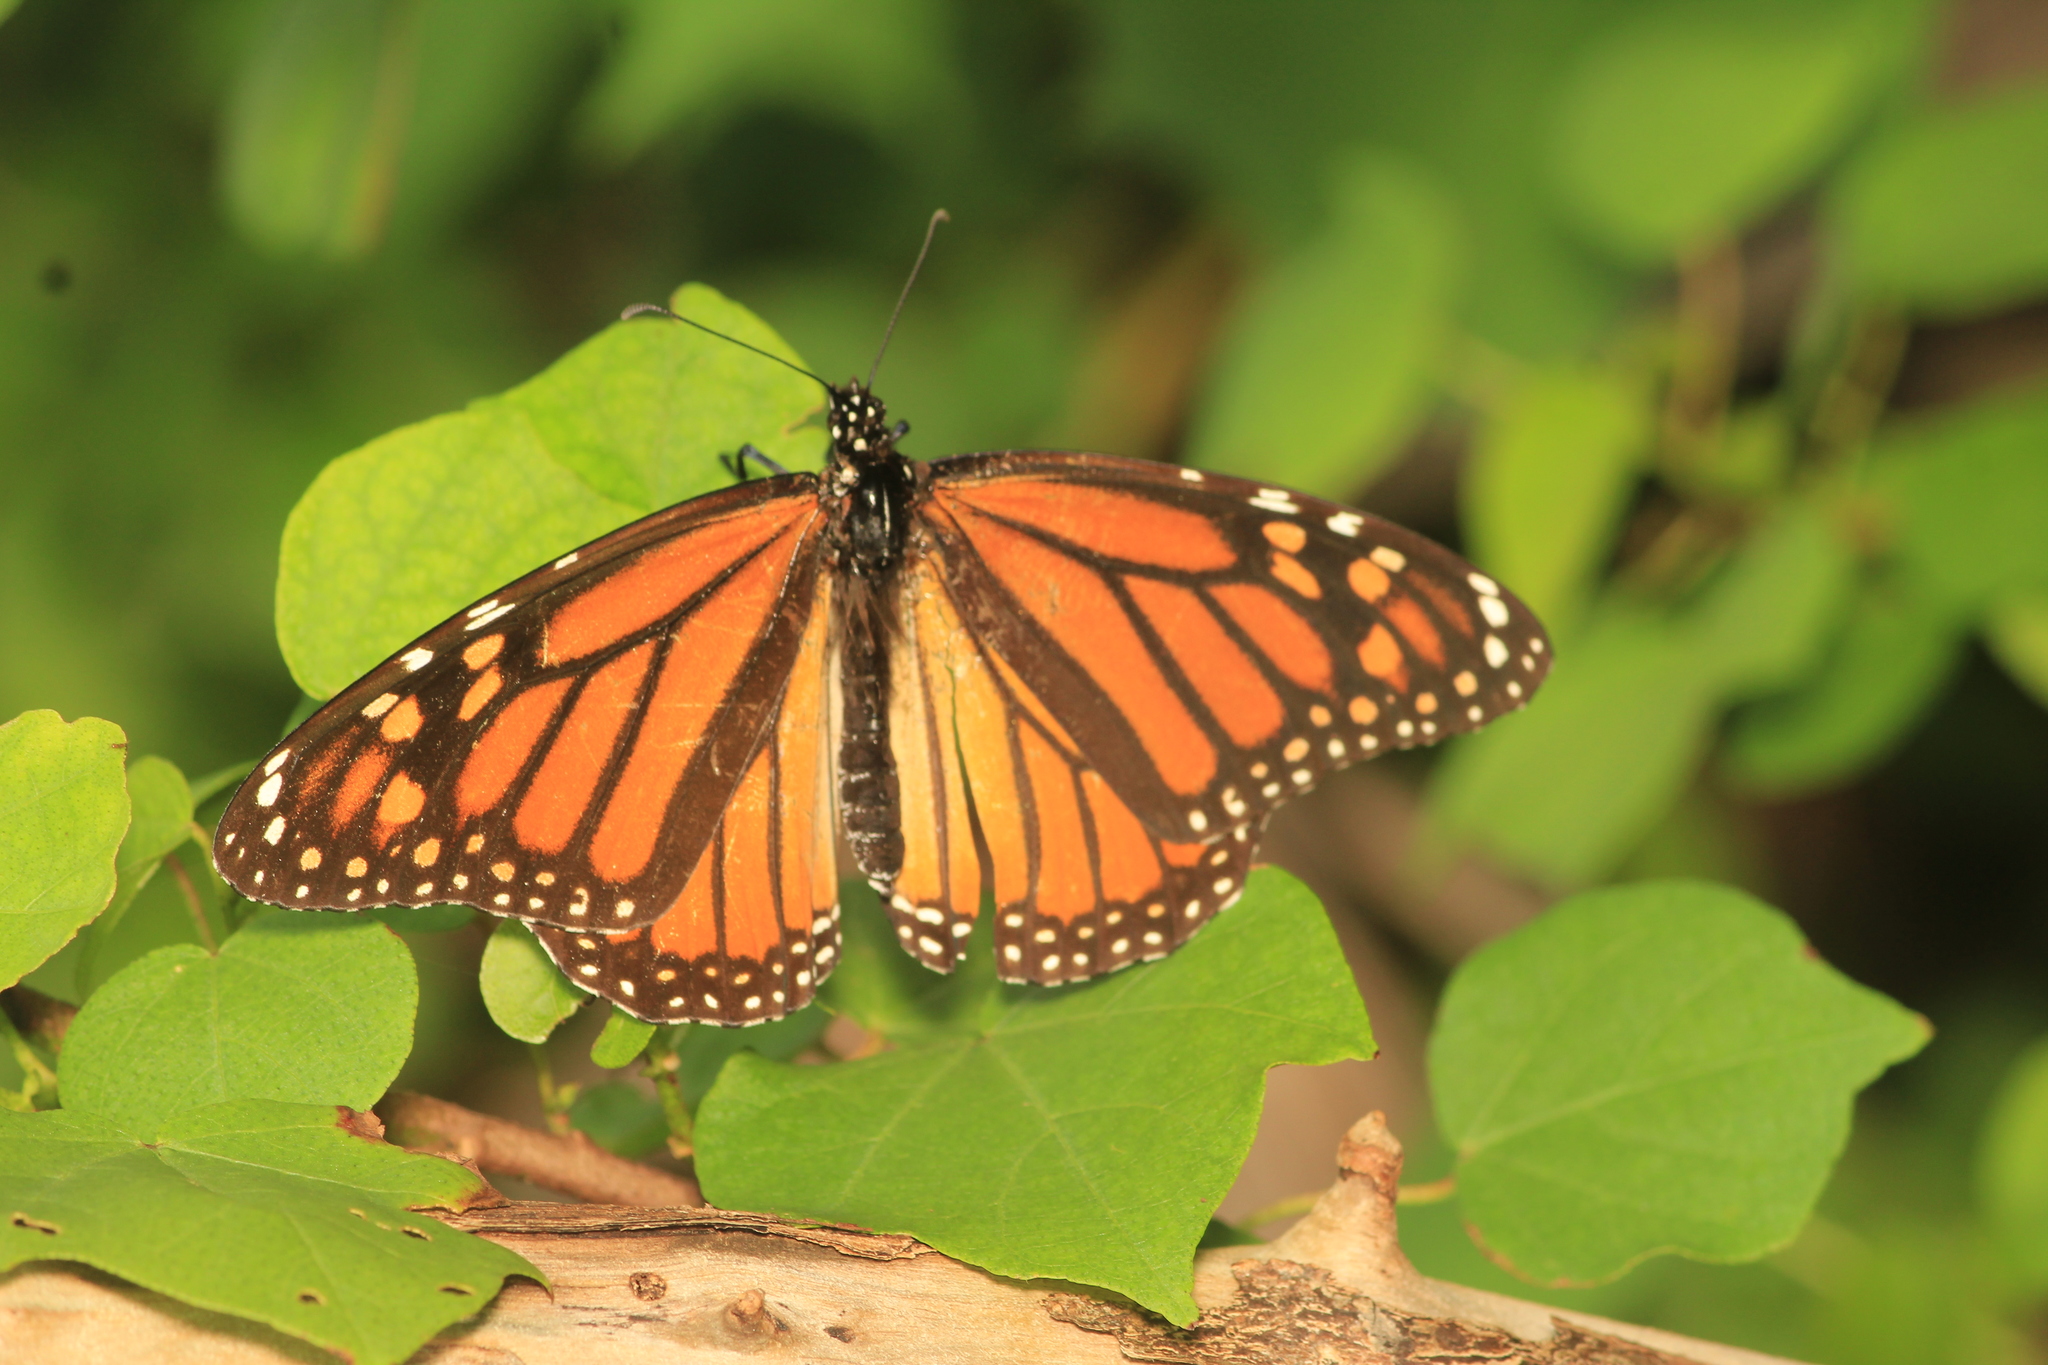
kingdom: Animalia
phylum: Arthropoda
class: Insecta
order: Lepidoptera
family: Nymphalidae
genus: Danaus
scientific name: Danaus plexippus
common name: Monarch
